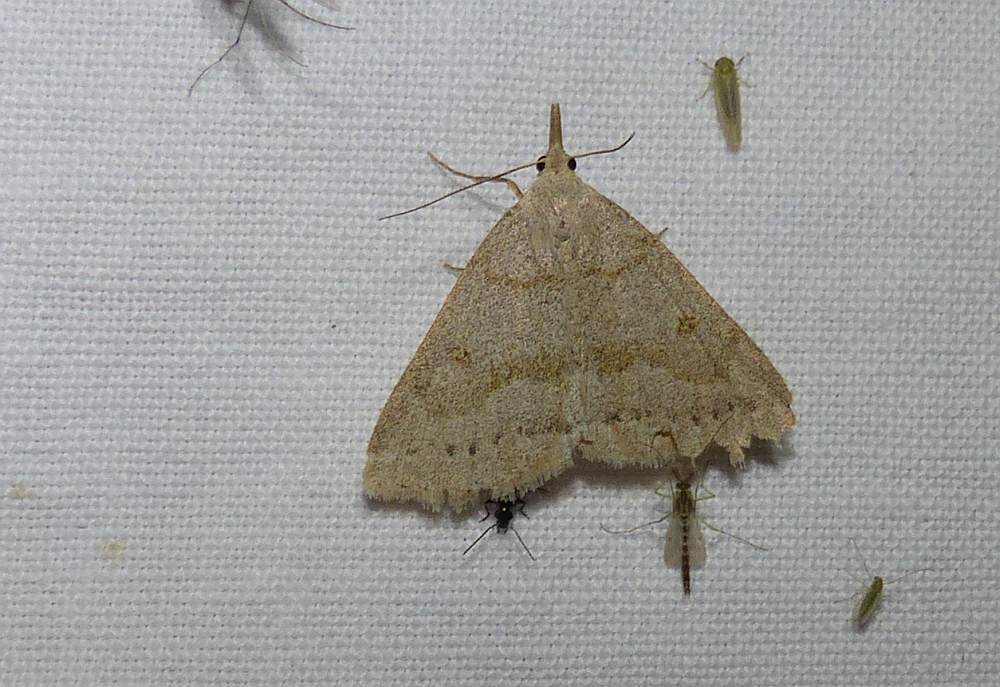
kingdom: Animalia
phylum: Arthropoda
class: Insecta
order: Lepidoptera
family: Erebidae
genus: Macrochilo
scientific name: Macrochilo morbidalis
